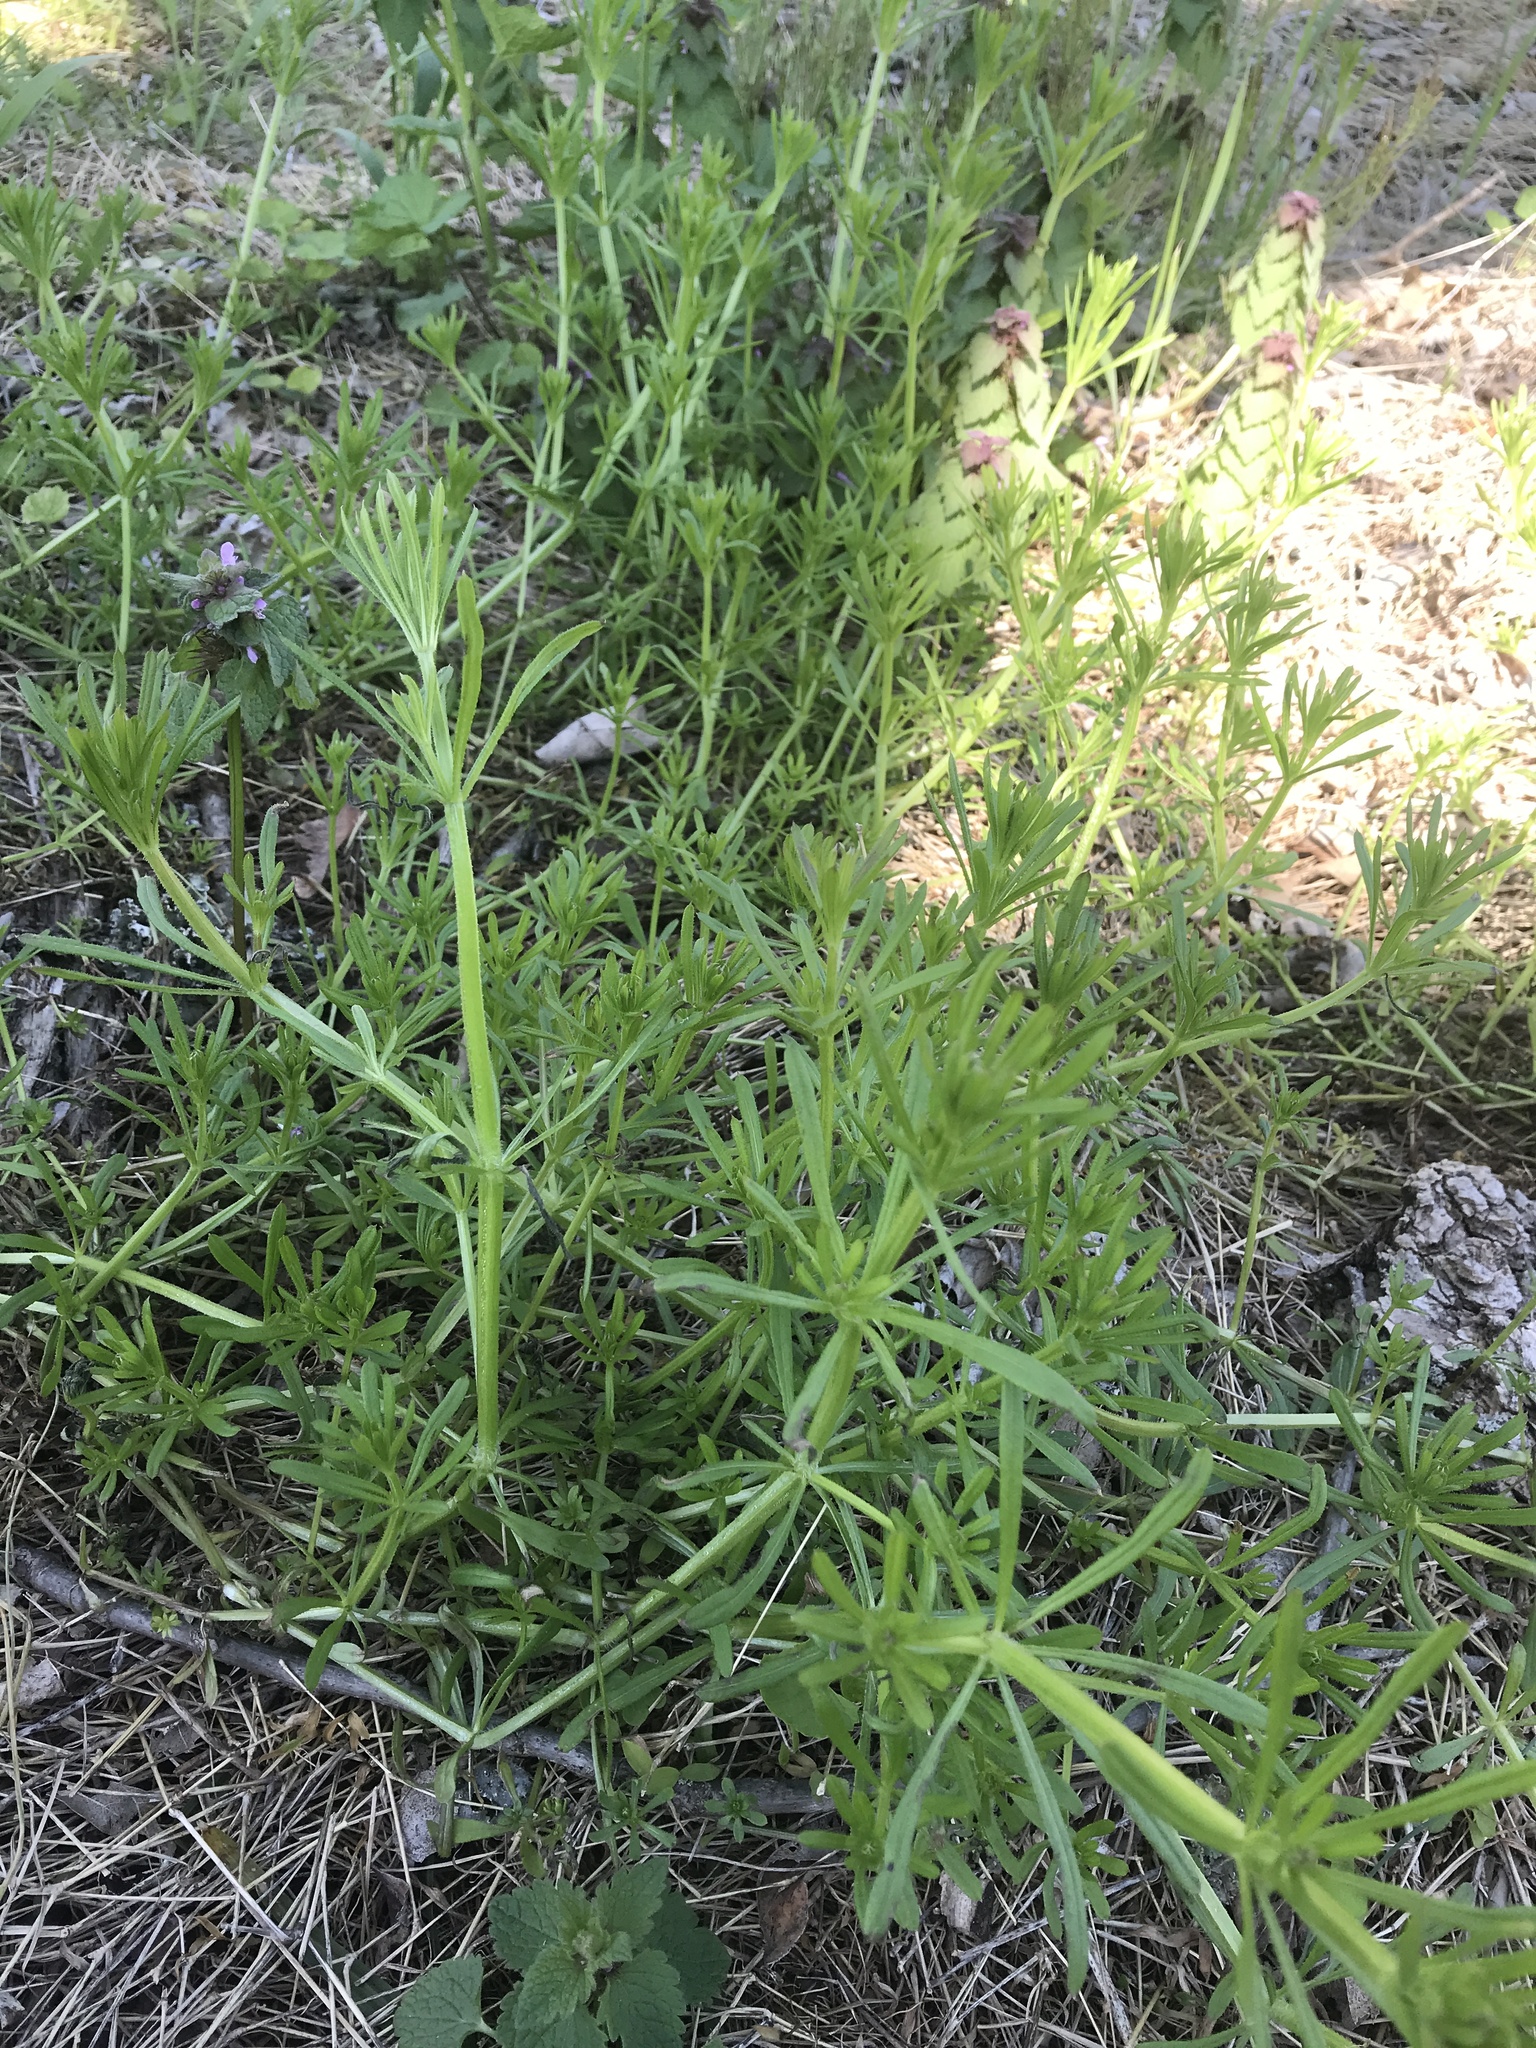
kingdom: Plantae
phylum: Tracheophyta
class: Magnoliopsida
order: Gentianales
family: Rubiaceae
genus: Galium
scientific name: Galium aparine
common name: Cleavers
